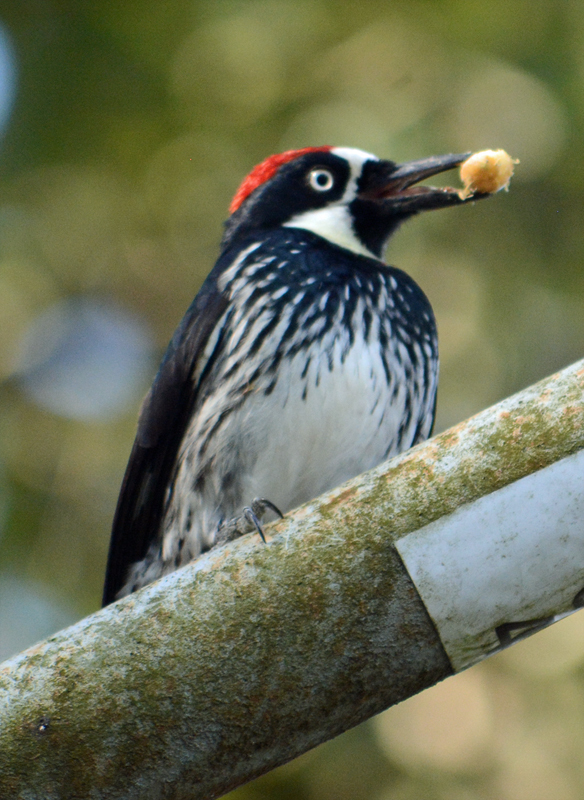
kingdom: Animalia
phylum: Chordata
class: Aves
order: Piciformes
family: Picidae
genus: Melanerpes
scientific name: Melanerpes formicivorus
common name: Acorn woodpecker
